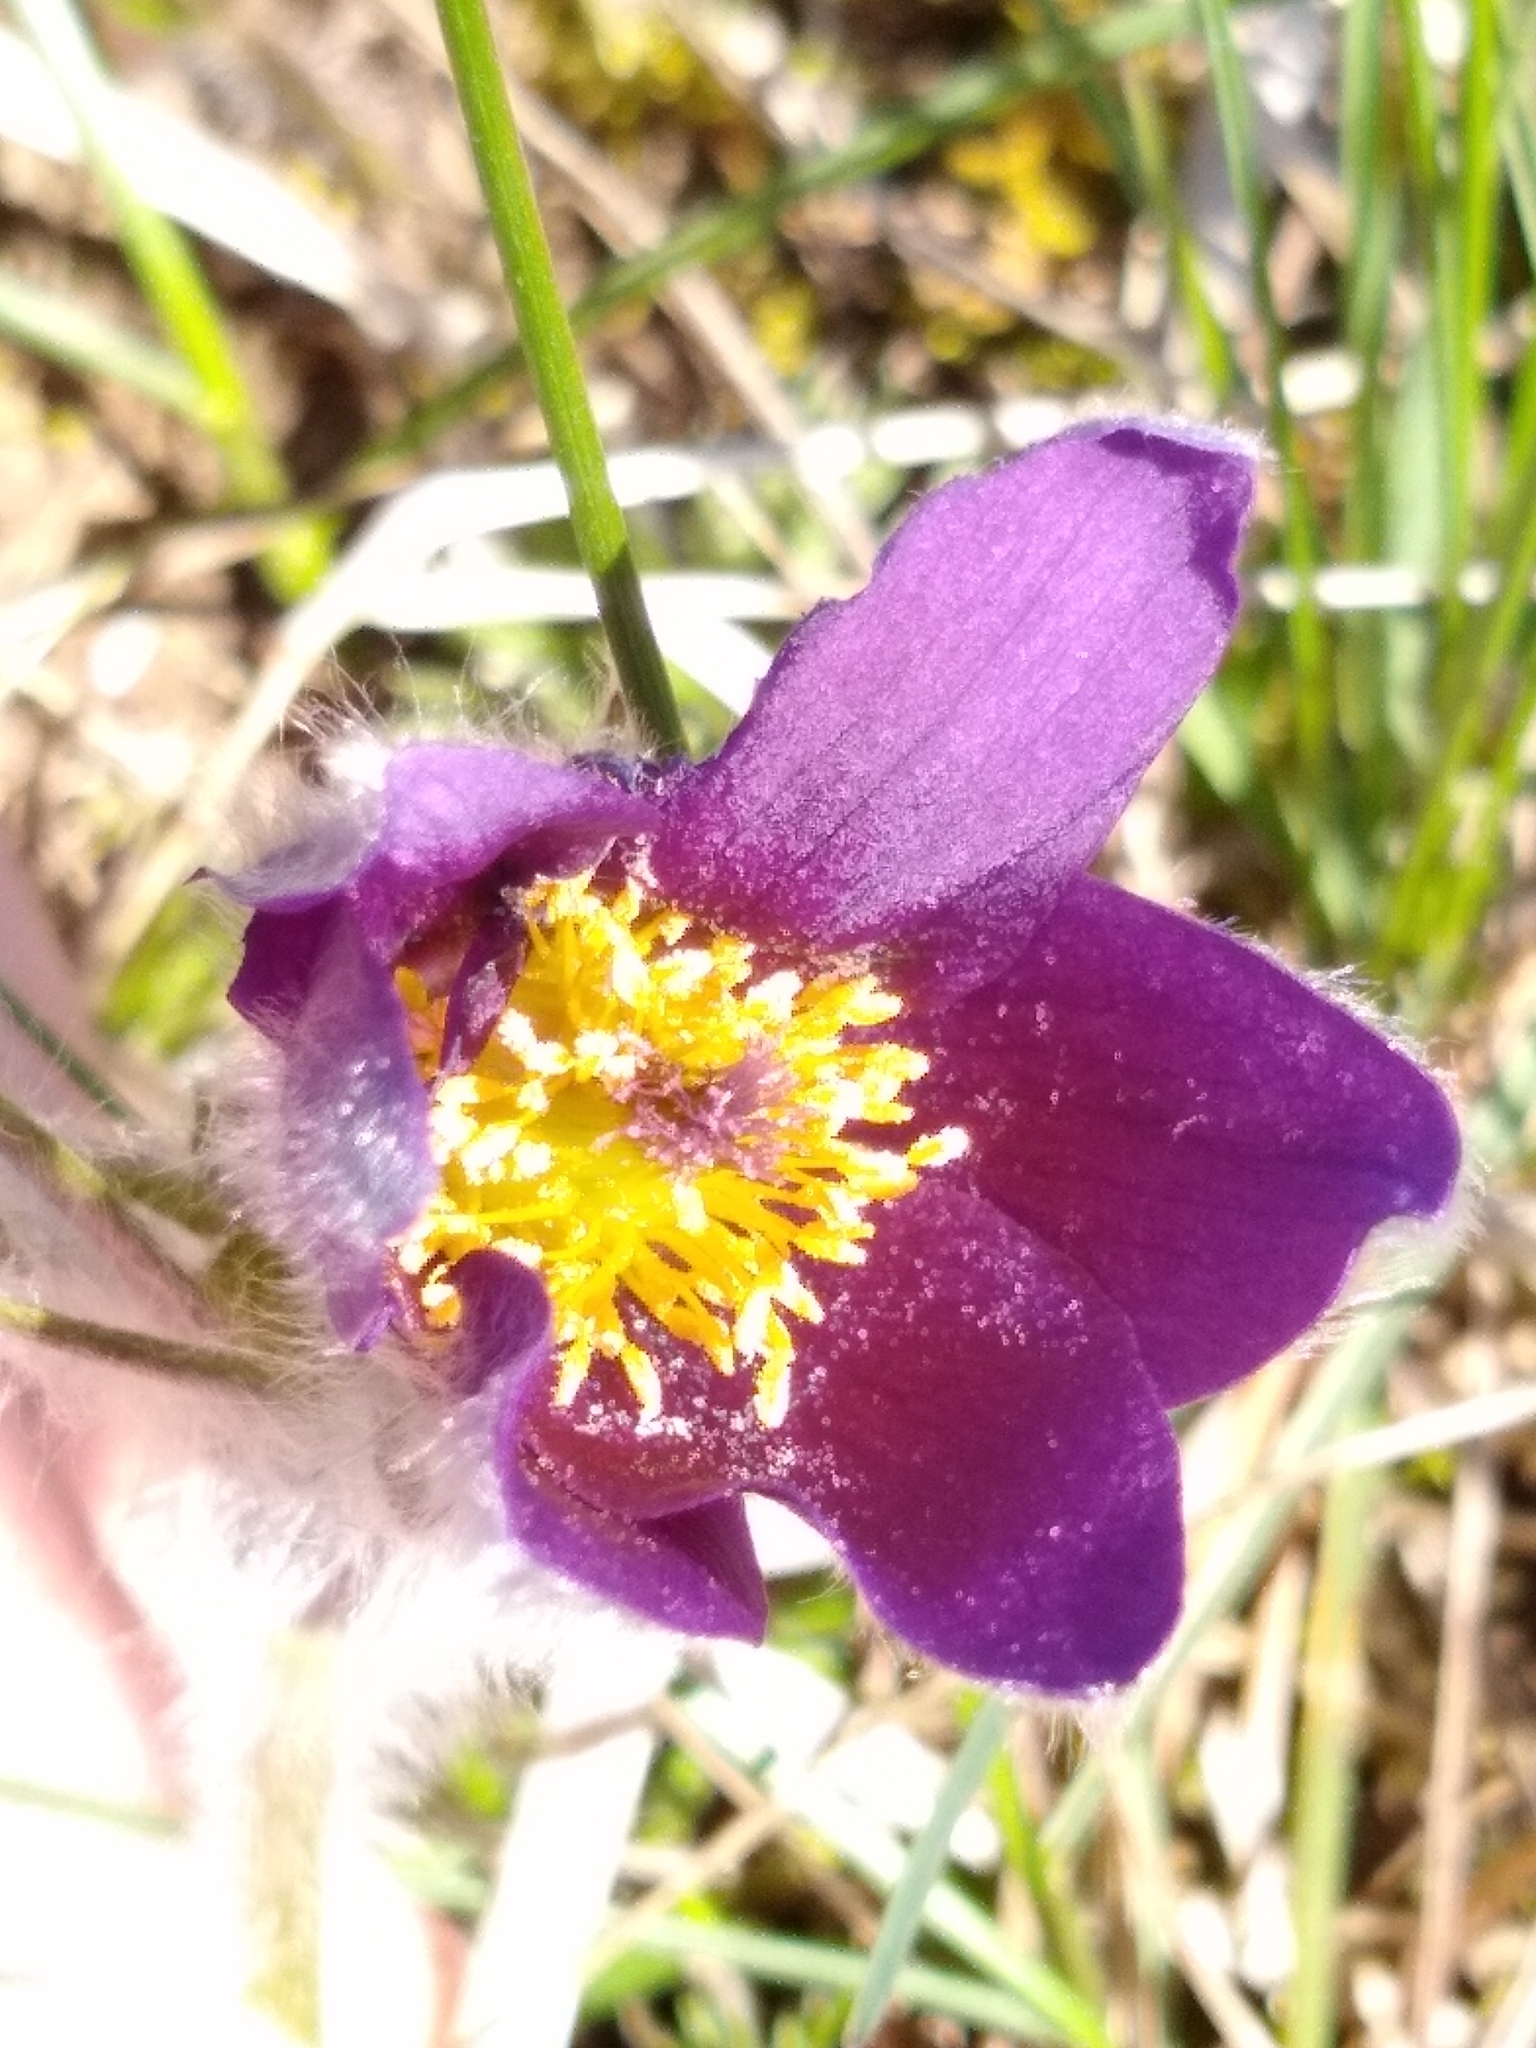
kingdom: Plantae
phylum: Tracheophyta
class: Magnoliopsida
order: Ranunculales
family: Ranunculaceae
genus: Pulsatilla
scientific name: Pulsatilla vulgaris
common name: Pasqueflower
